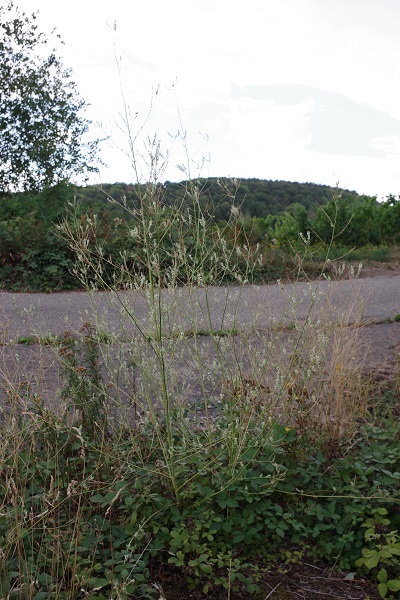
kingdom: Plantae
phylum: Tracheophyta
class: Magnoliopsida
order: Fabales
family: Fabaceae
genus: Melilotus
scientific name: Melilotus albus
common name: White melilot
